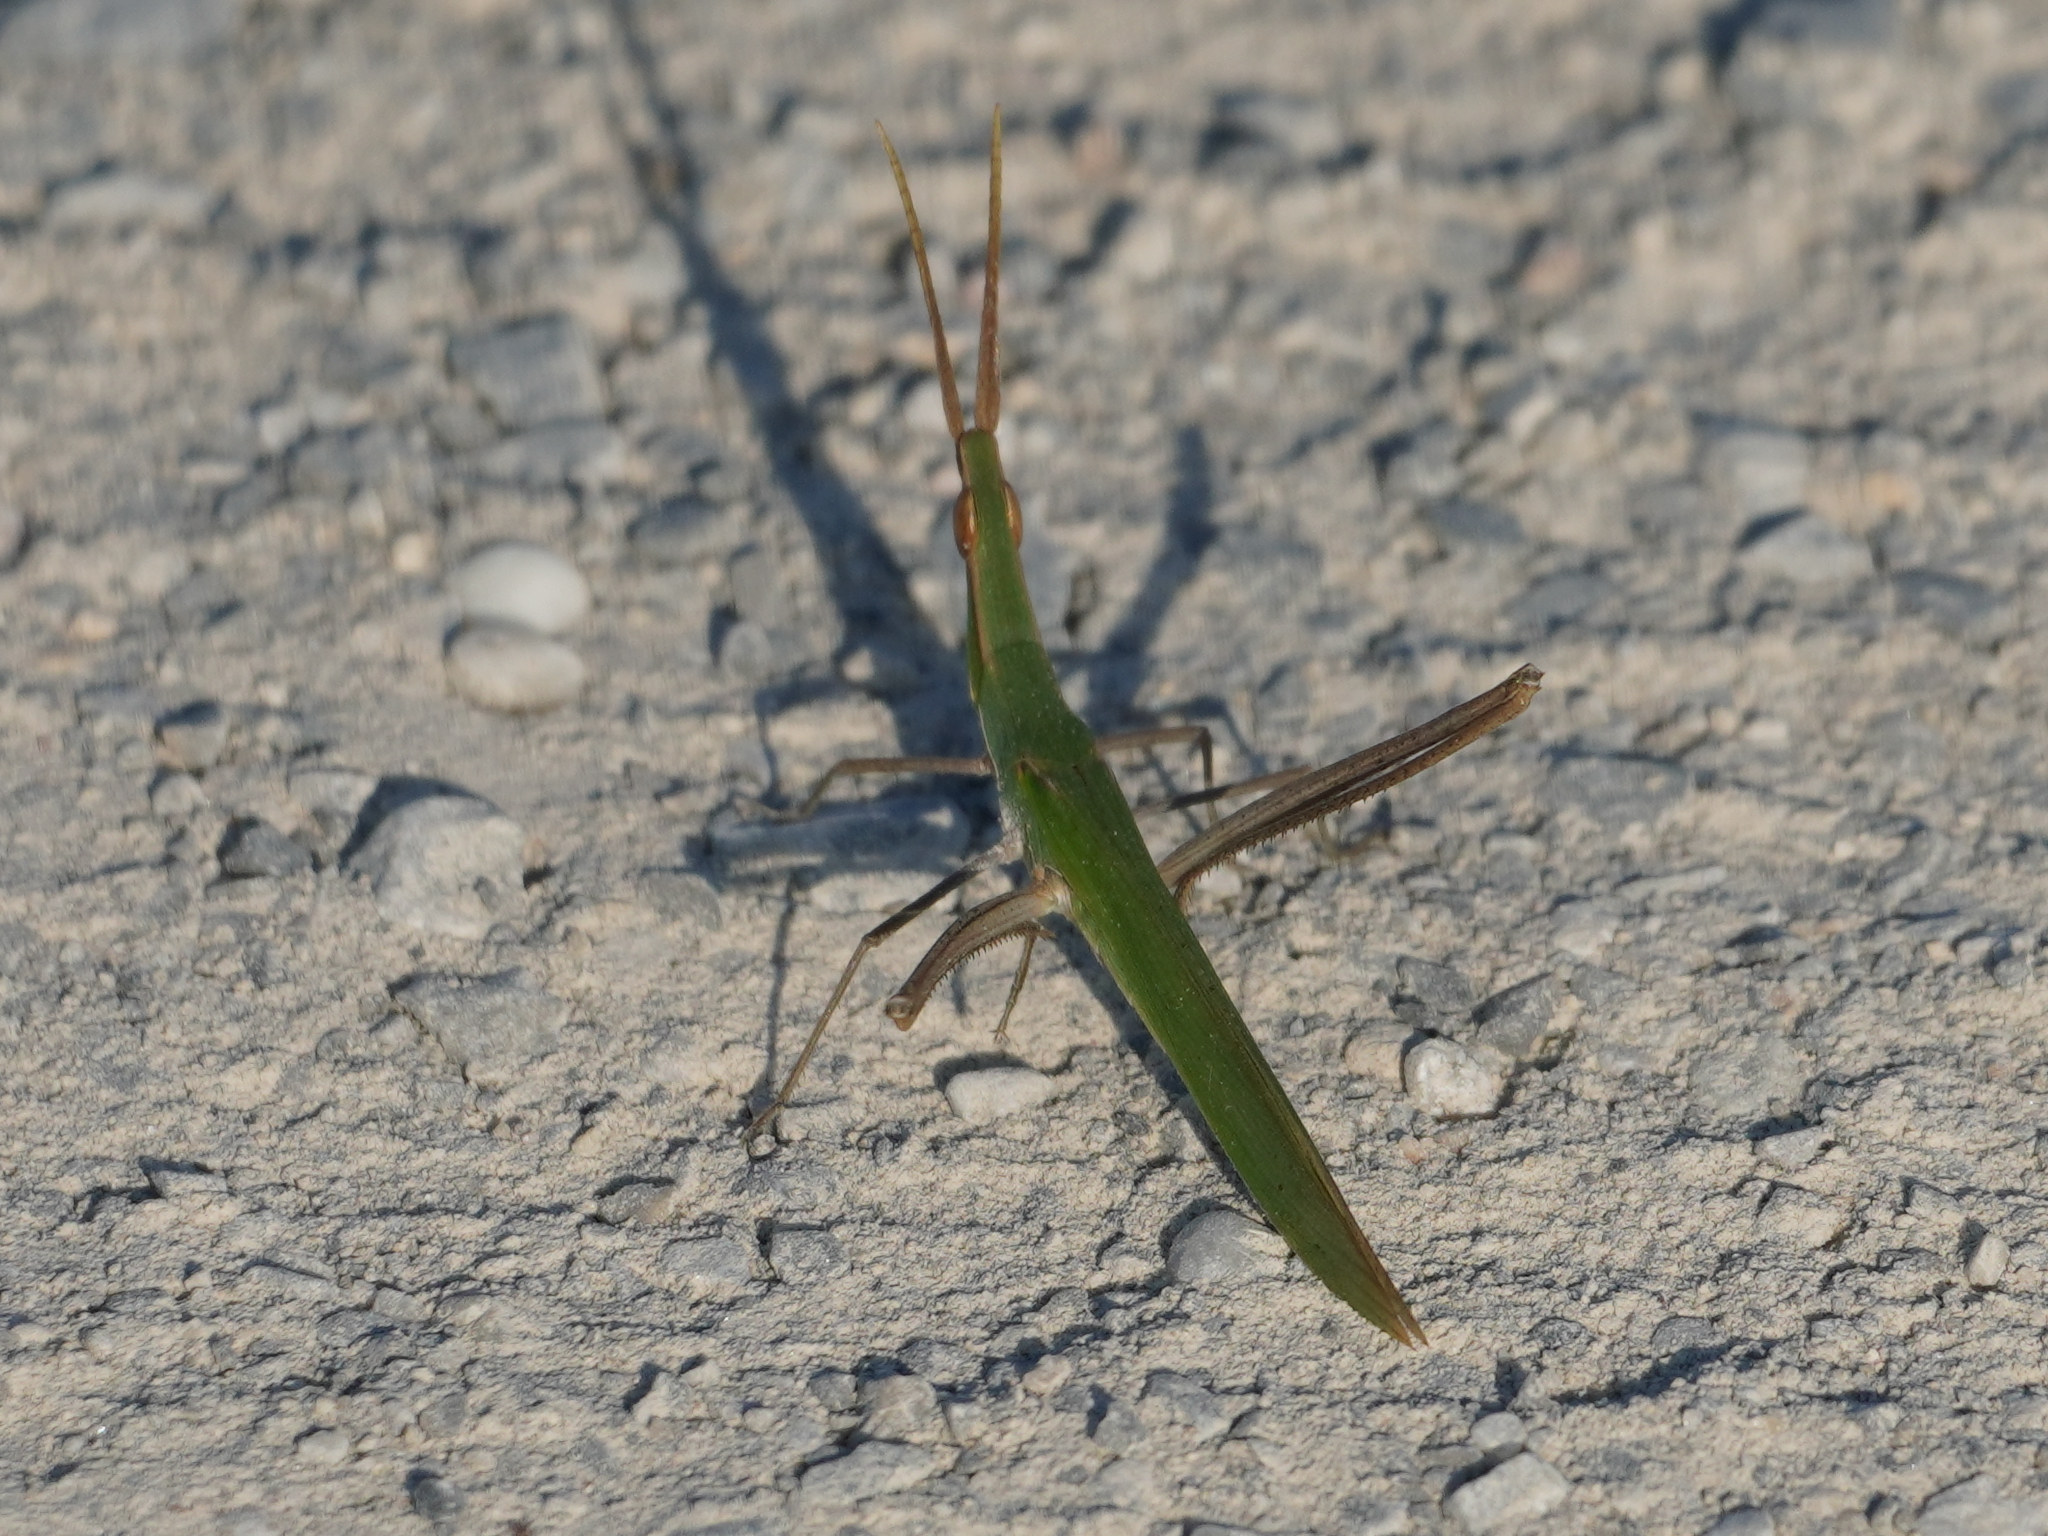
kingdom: Animalia
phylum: Arthropoda
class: Insecta
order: Orthoptera
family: Acrididae
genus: Acrida
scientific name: Acrida ungarica
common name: Common cone-headed grasshopper
